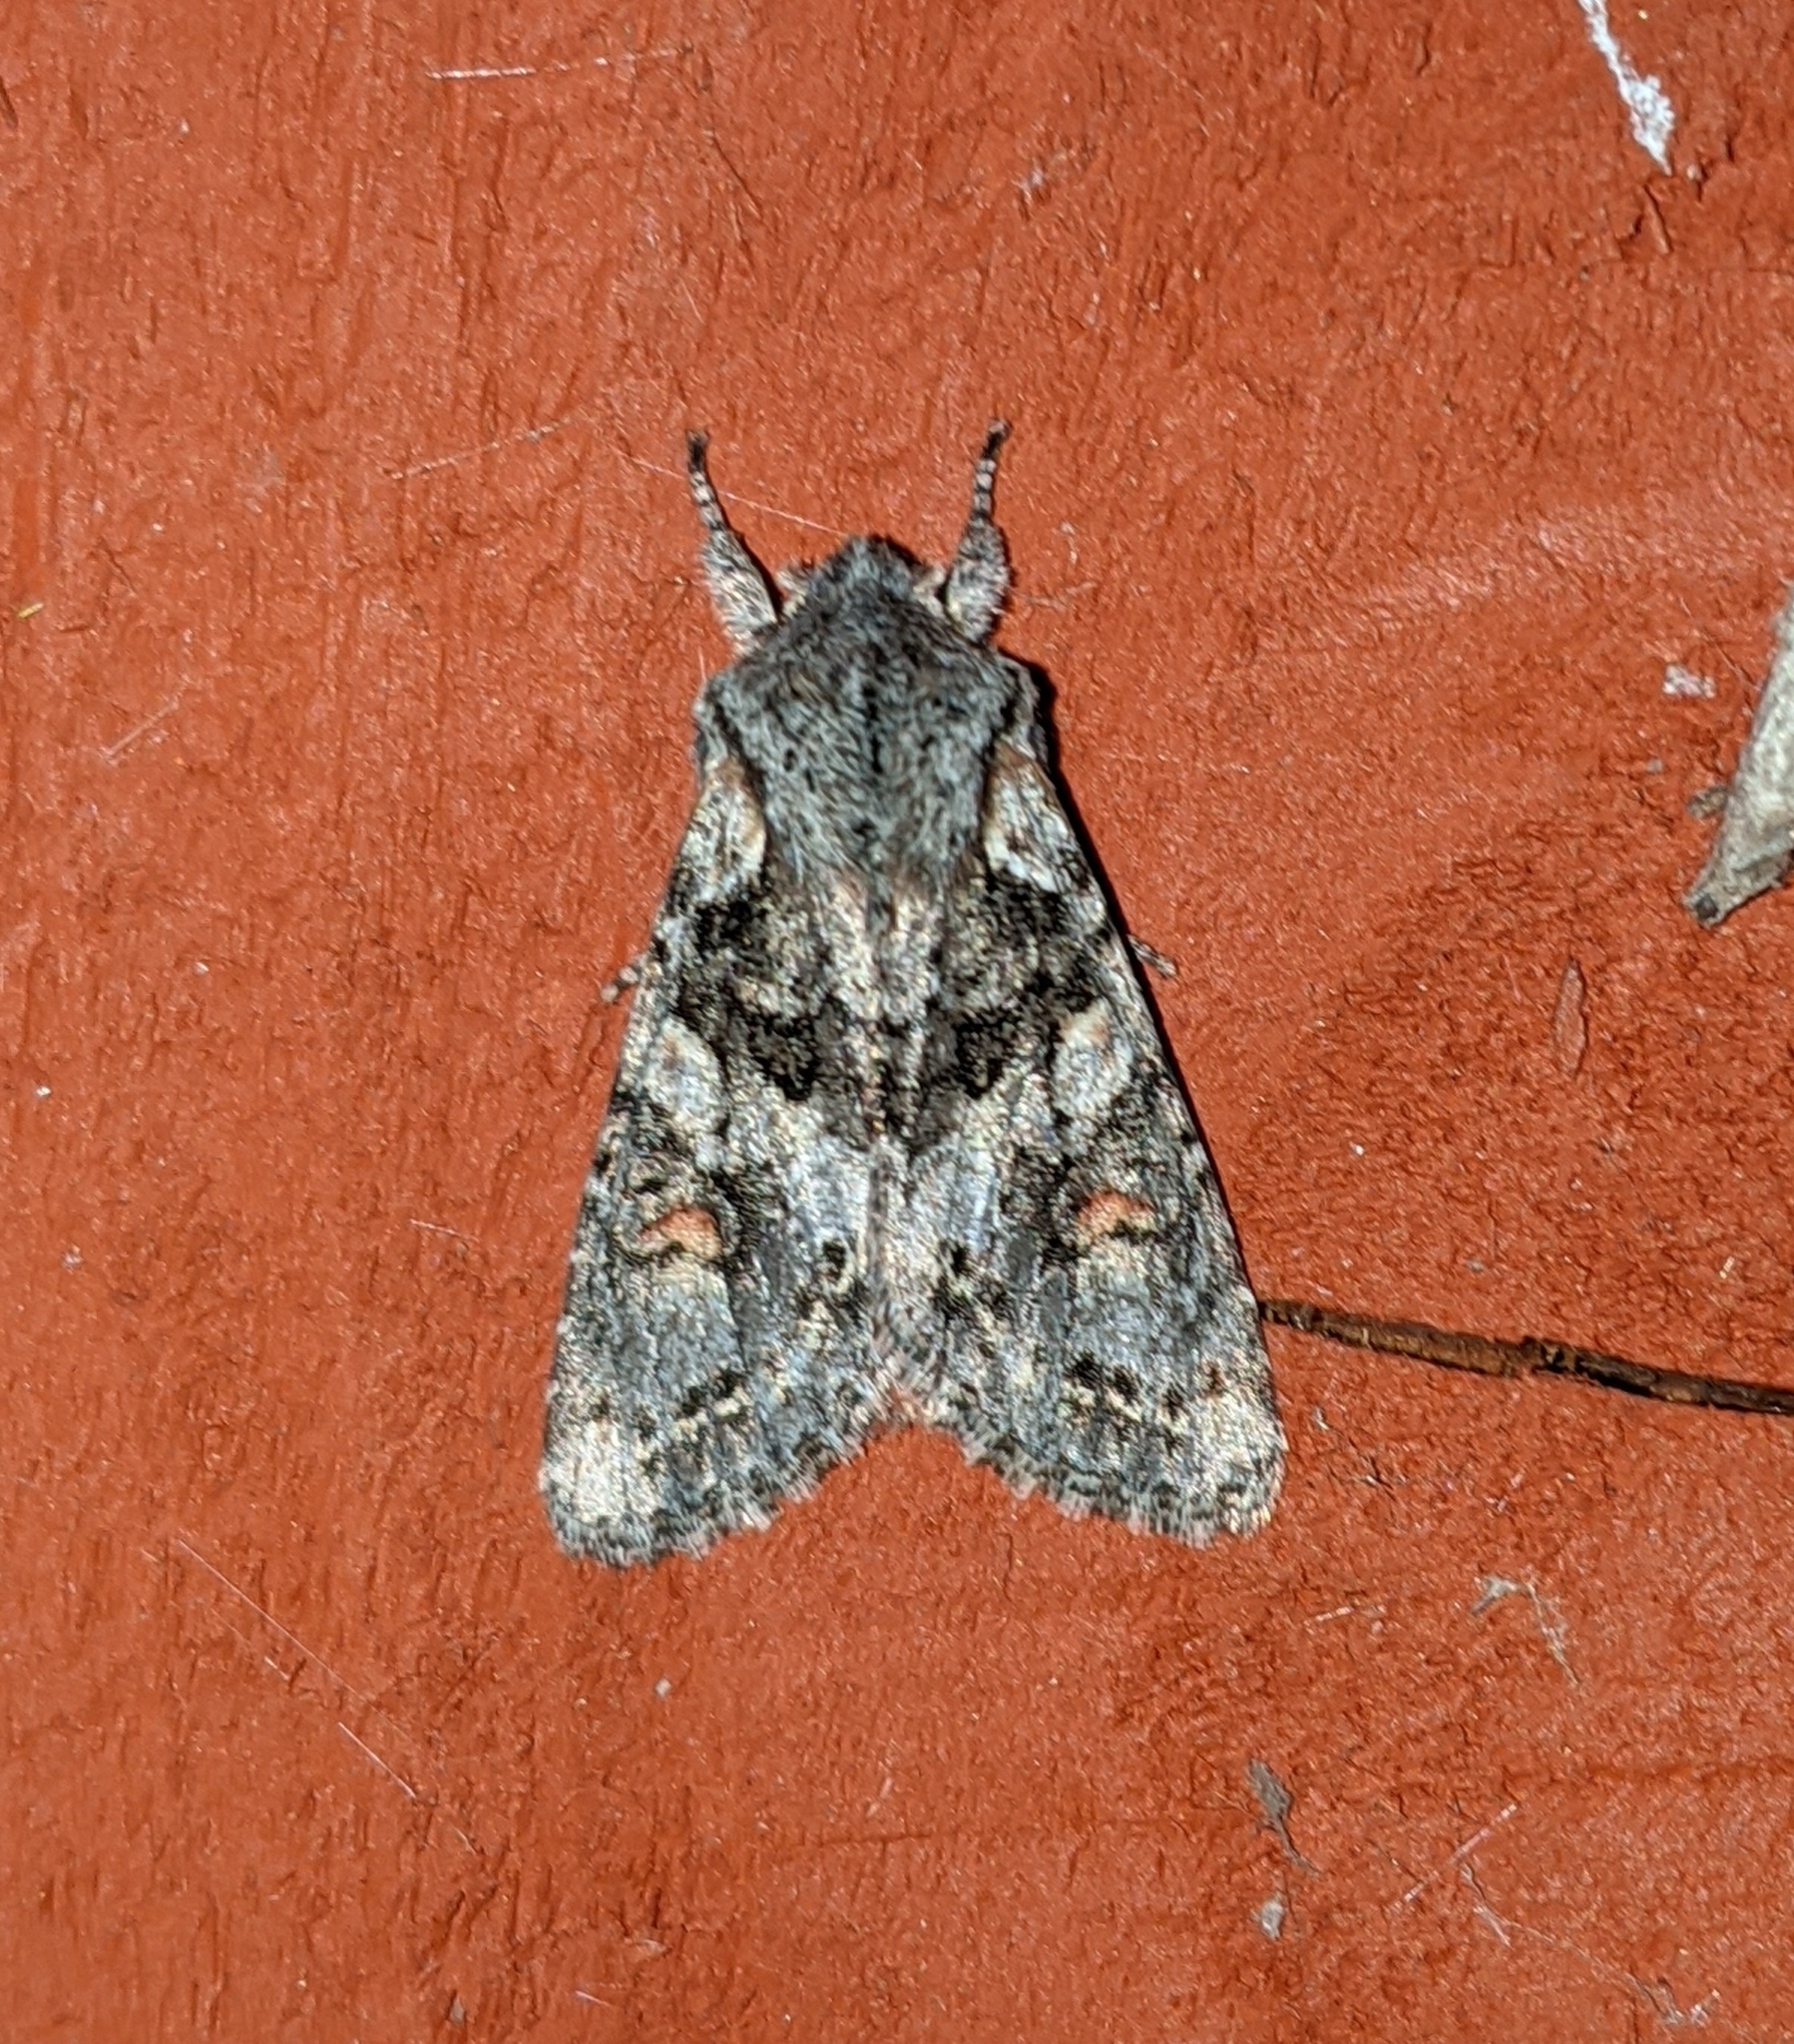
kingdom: Animalia
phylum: Arthropoda
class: Insecta
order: Lepidoptera
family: Noctuidae
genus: Egira
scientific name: Egira hiemalis
